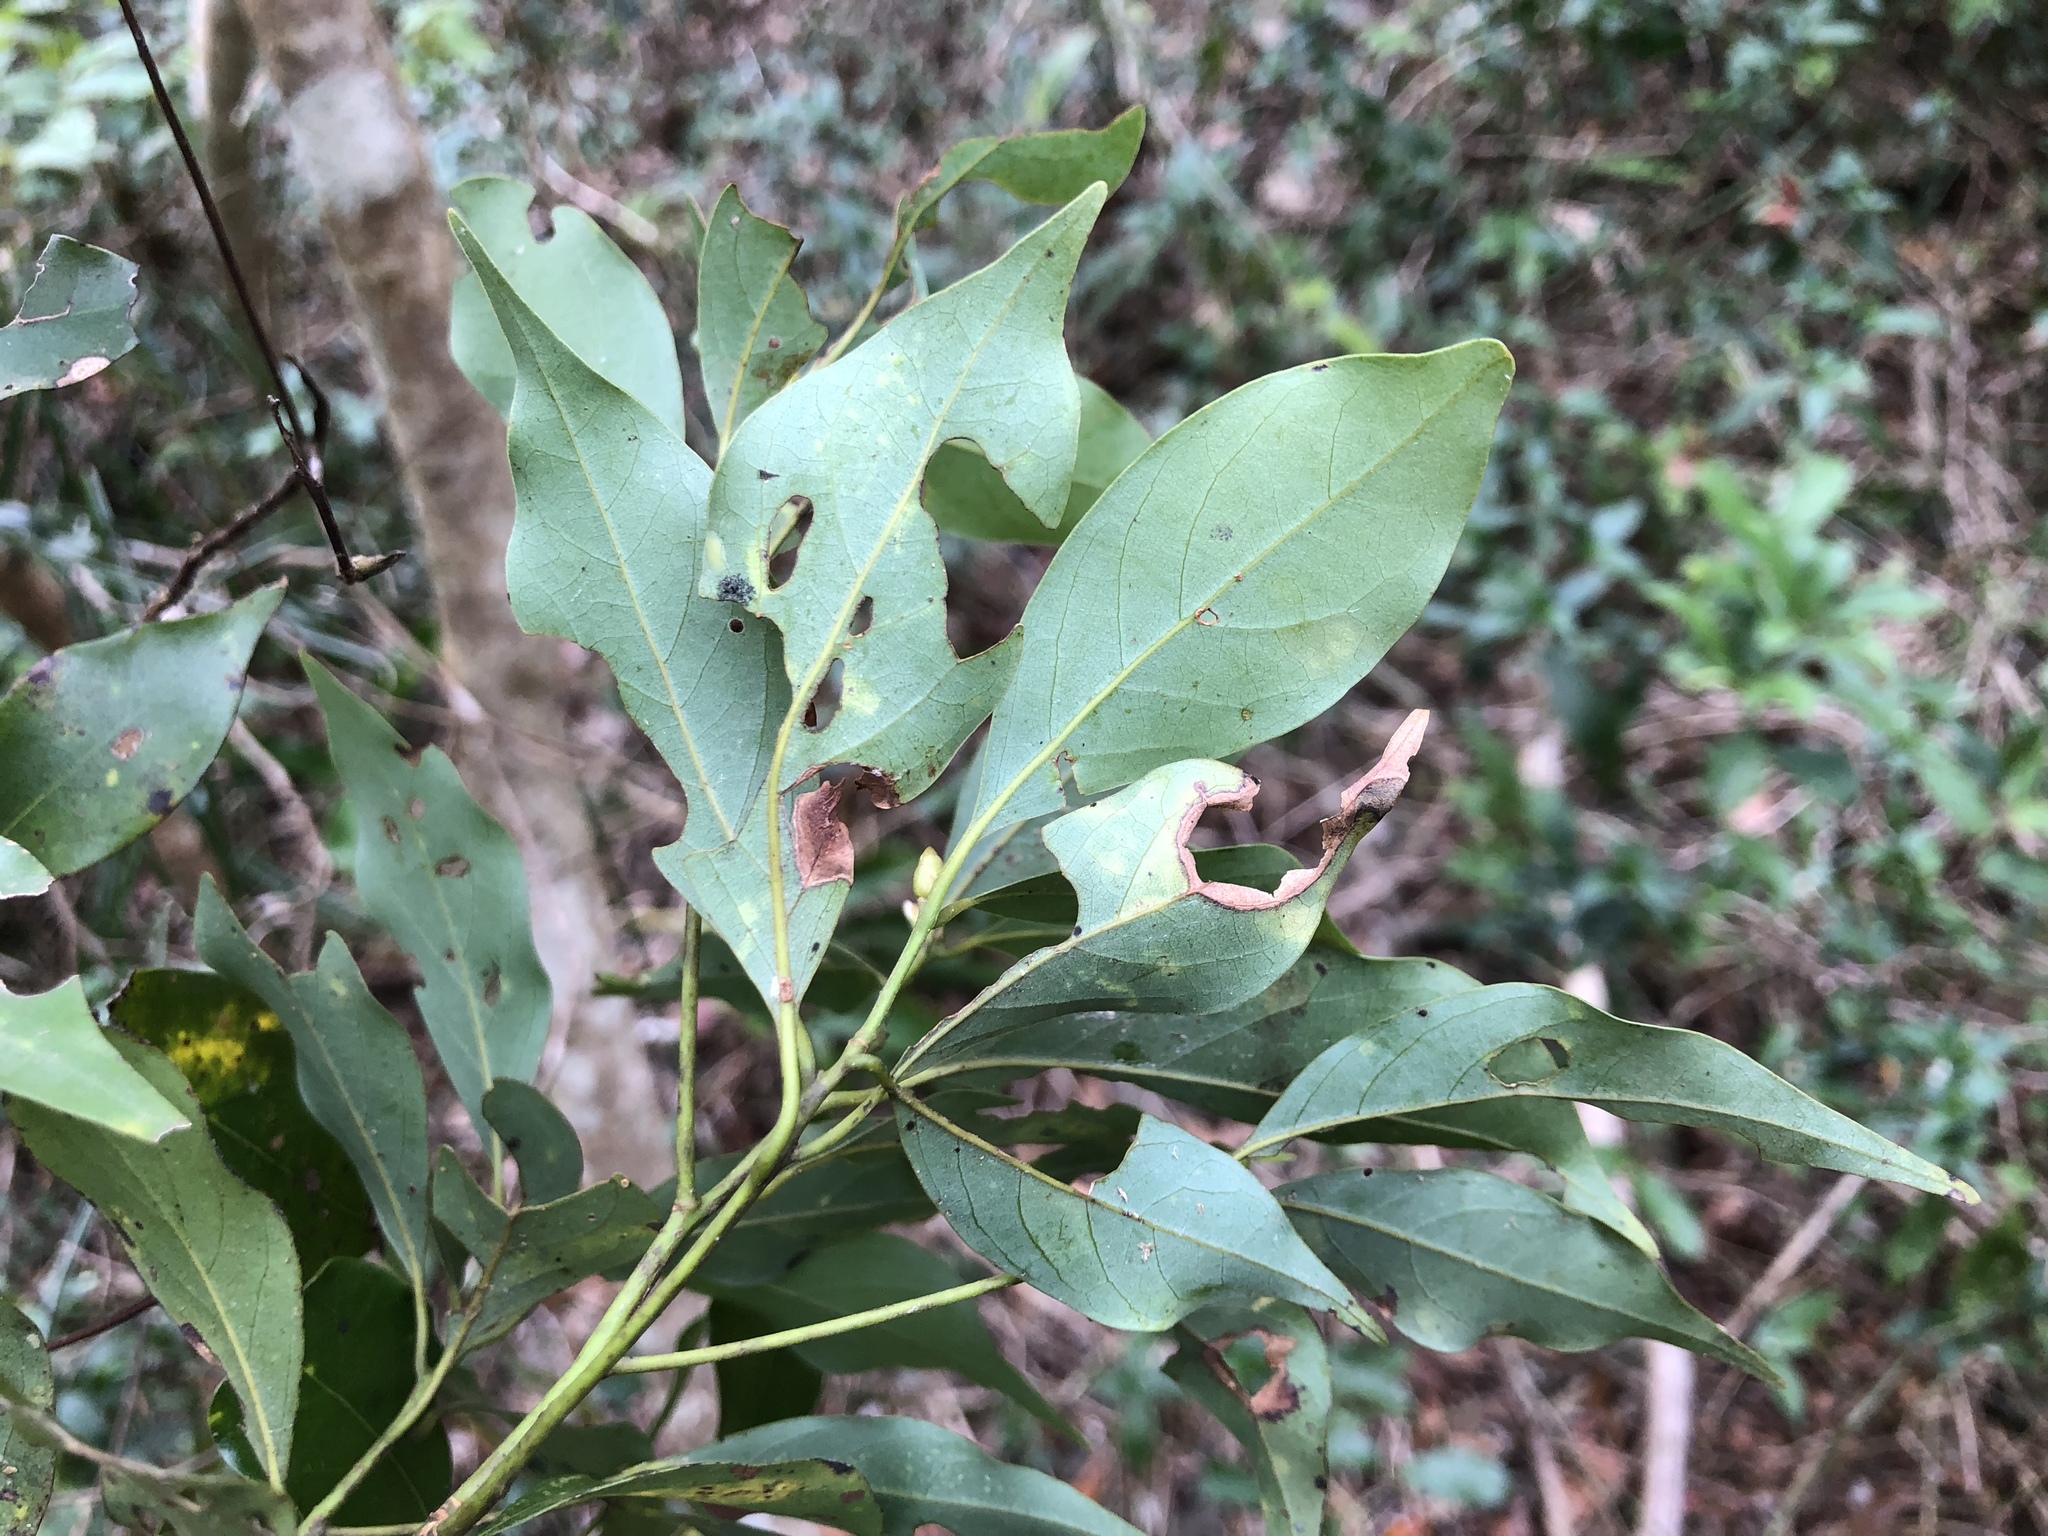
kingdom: Plantae
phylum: Tracheophyta
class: Magnoliopsida
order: Laurales
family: Lauraceae
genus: Machilus
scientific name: Machilus thunbergii
